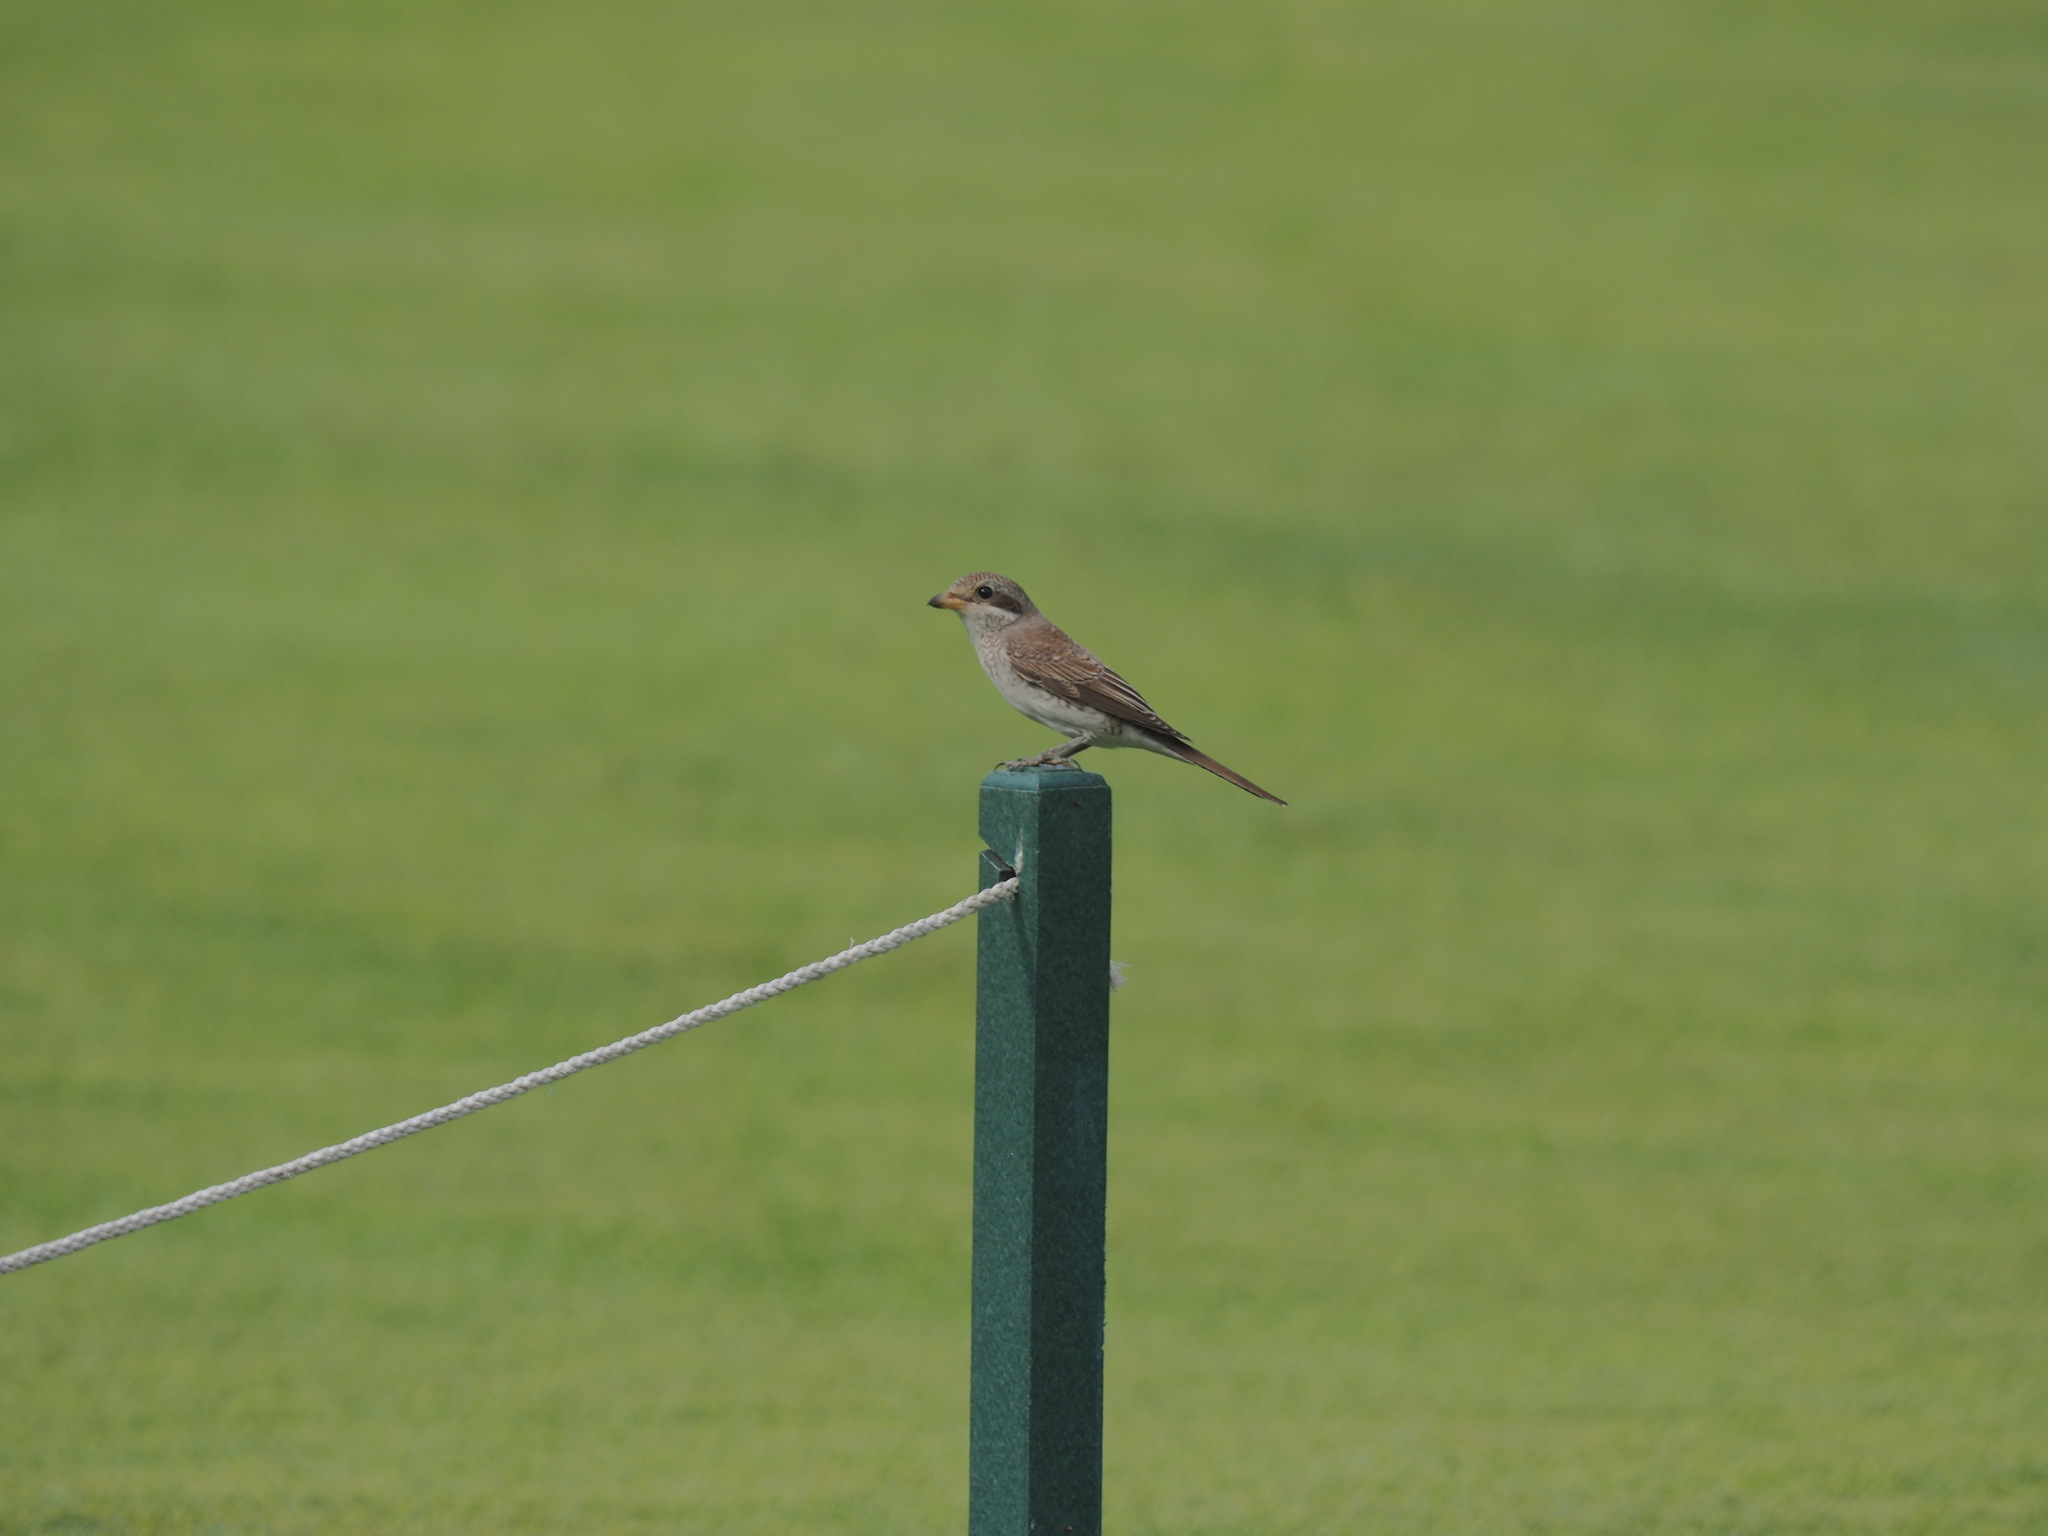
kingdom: Animalia
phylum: Chordata
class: Aves
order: Passeriformes
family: Laniidae
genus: Lanius
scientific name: Lanius collurio
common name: Red-backed shrike
